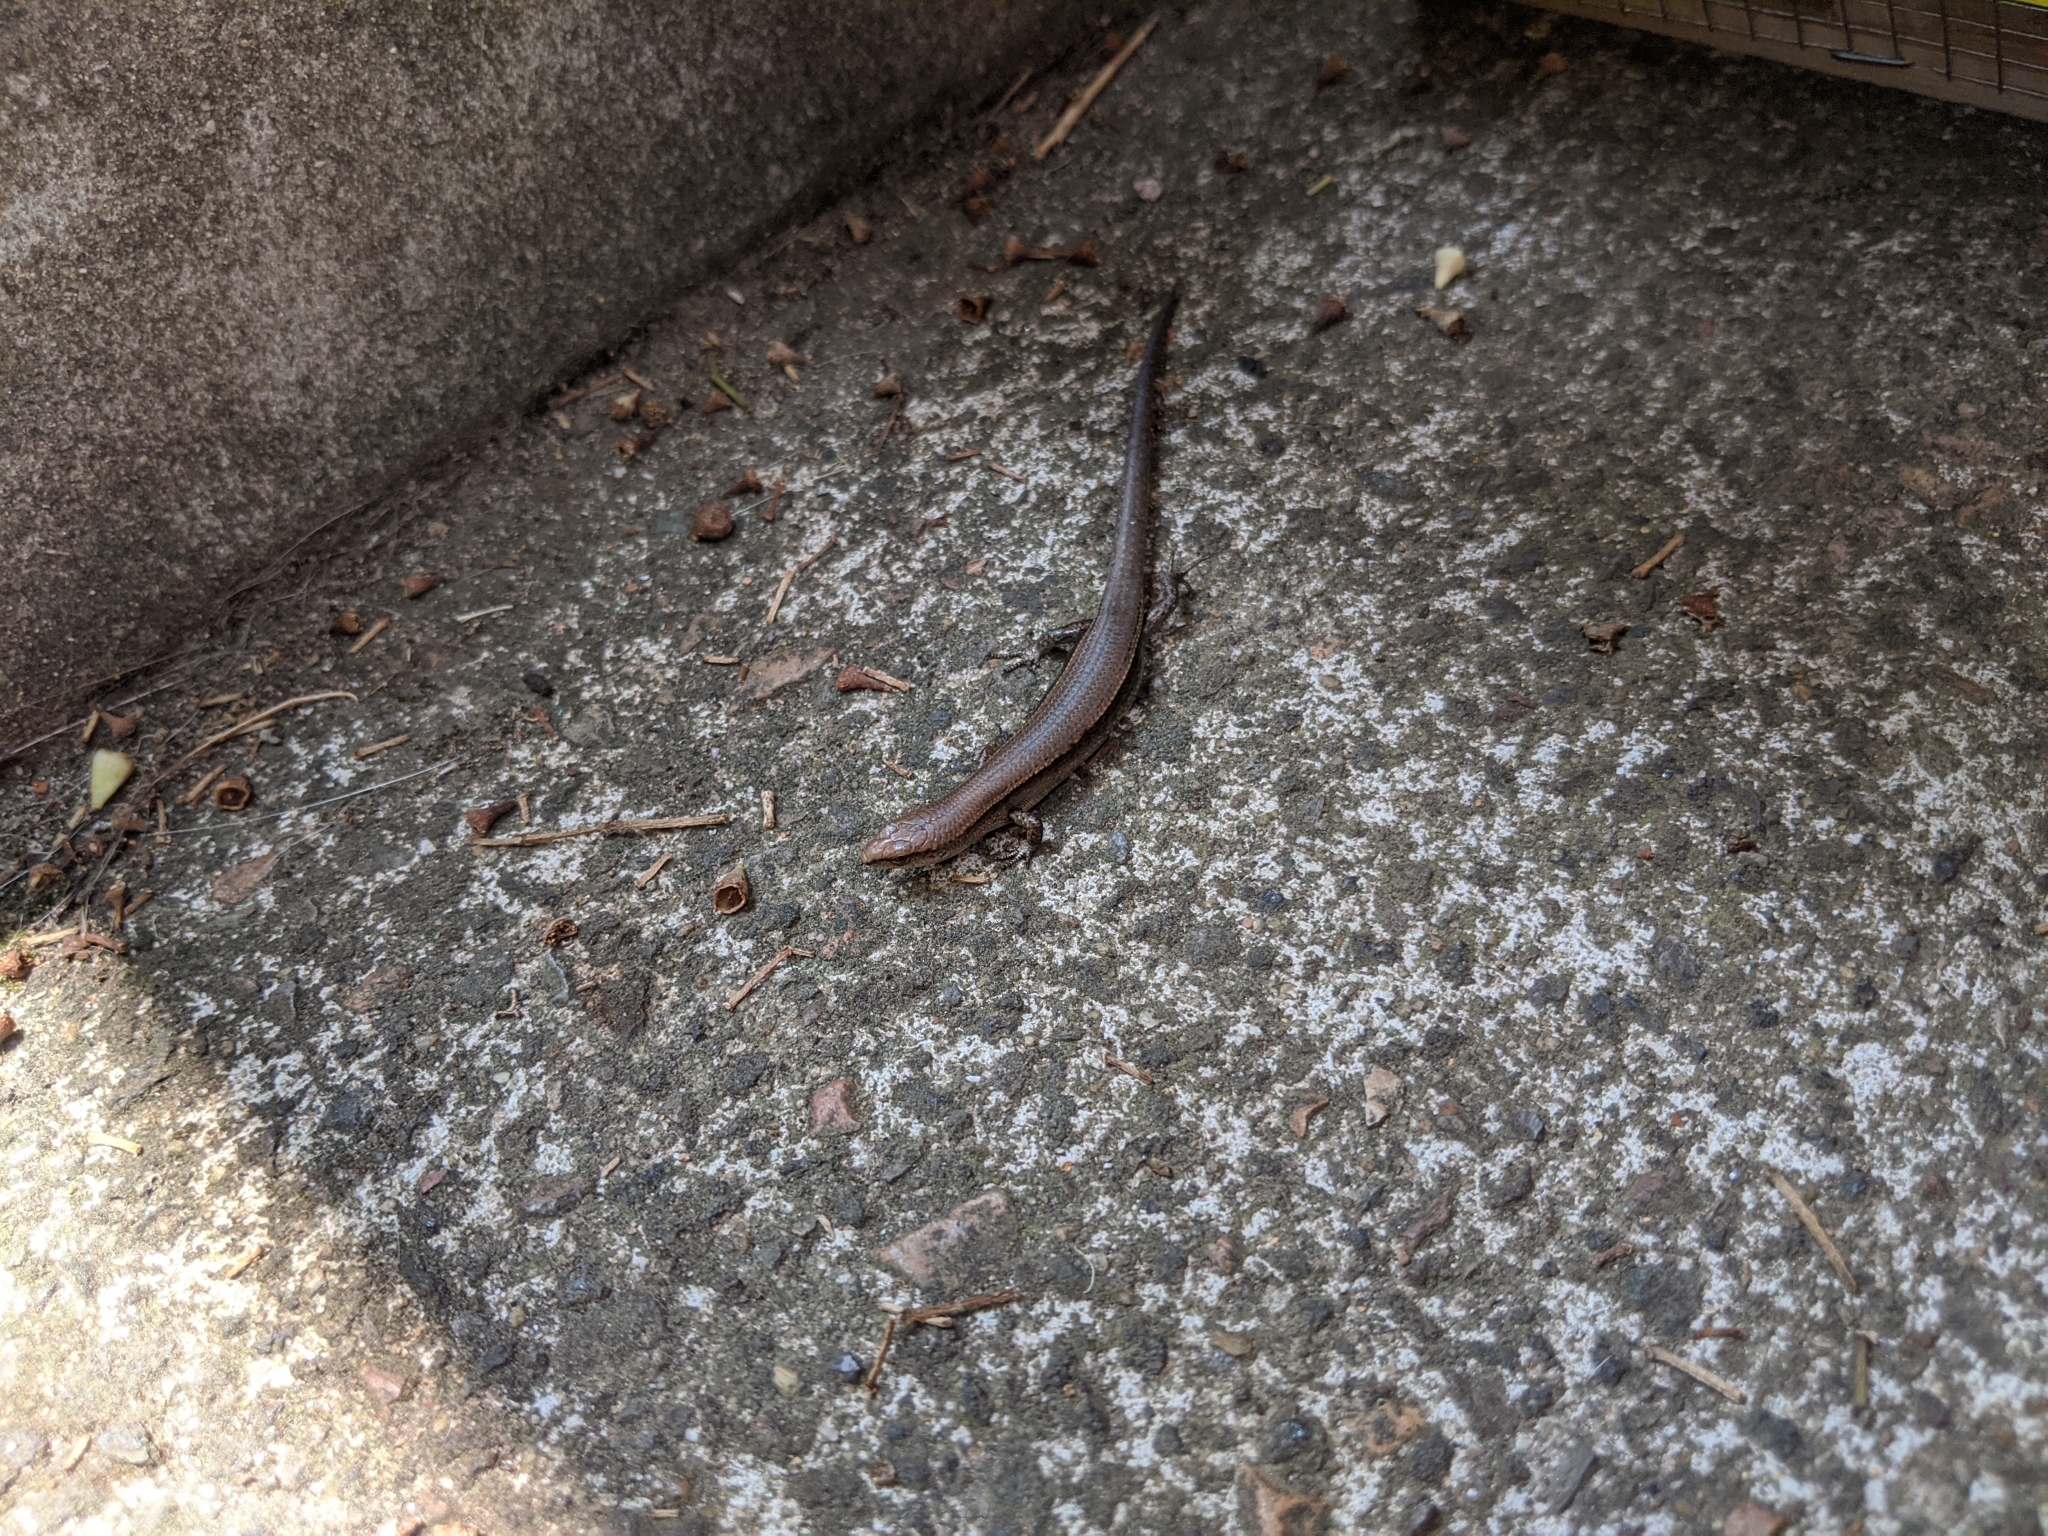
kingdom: Animalia
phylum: Chordata
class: Squamata
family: Scincidae
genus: Lampropholis
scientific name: Lampropholis delicata
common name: Plague skink
